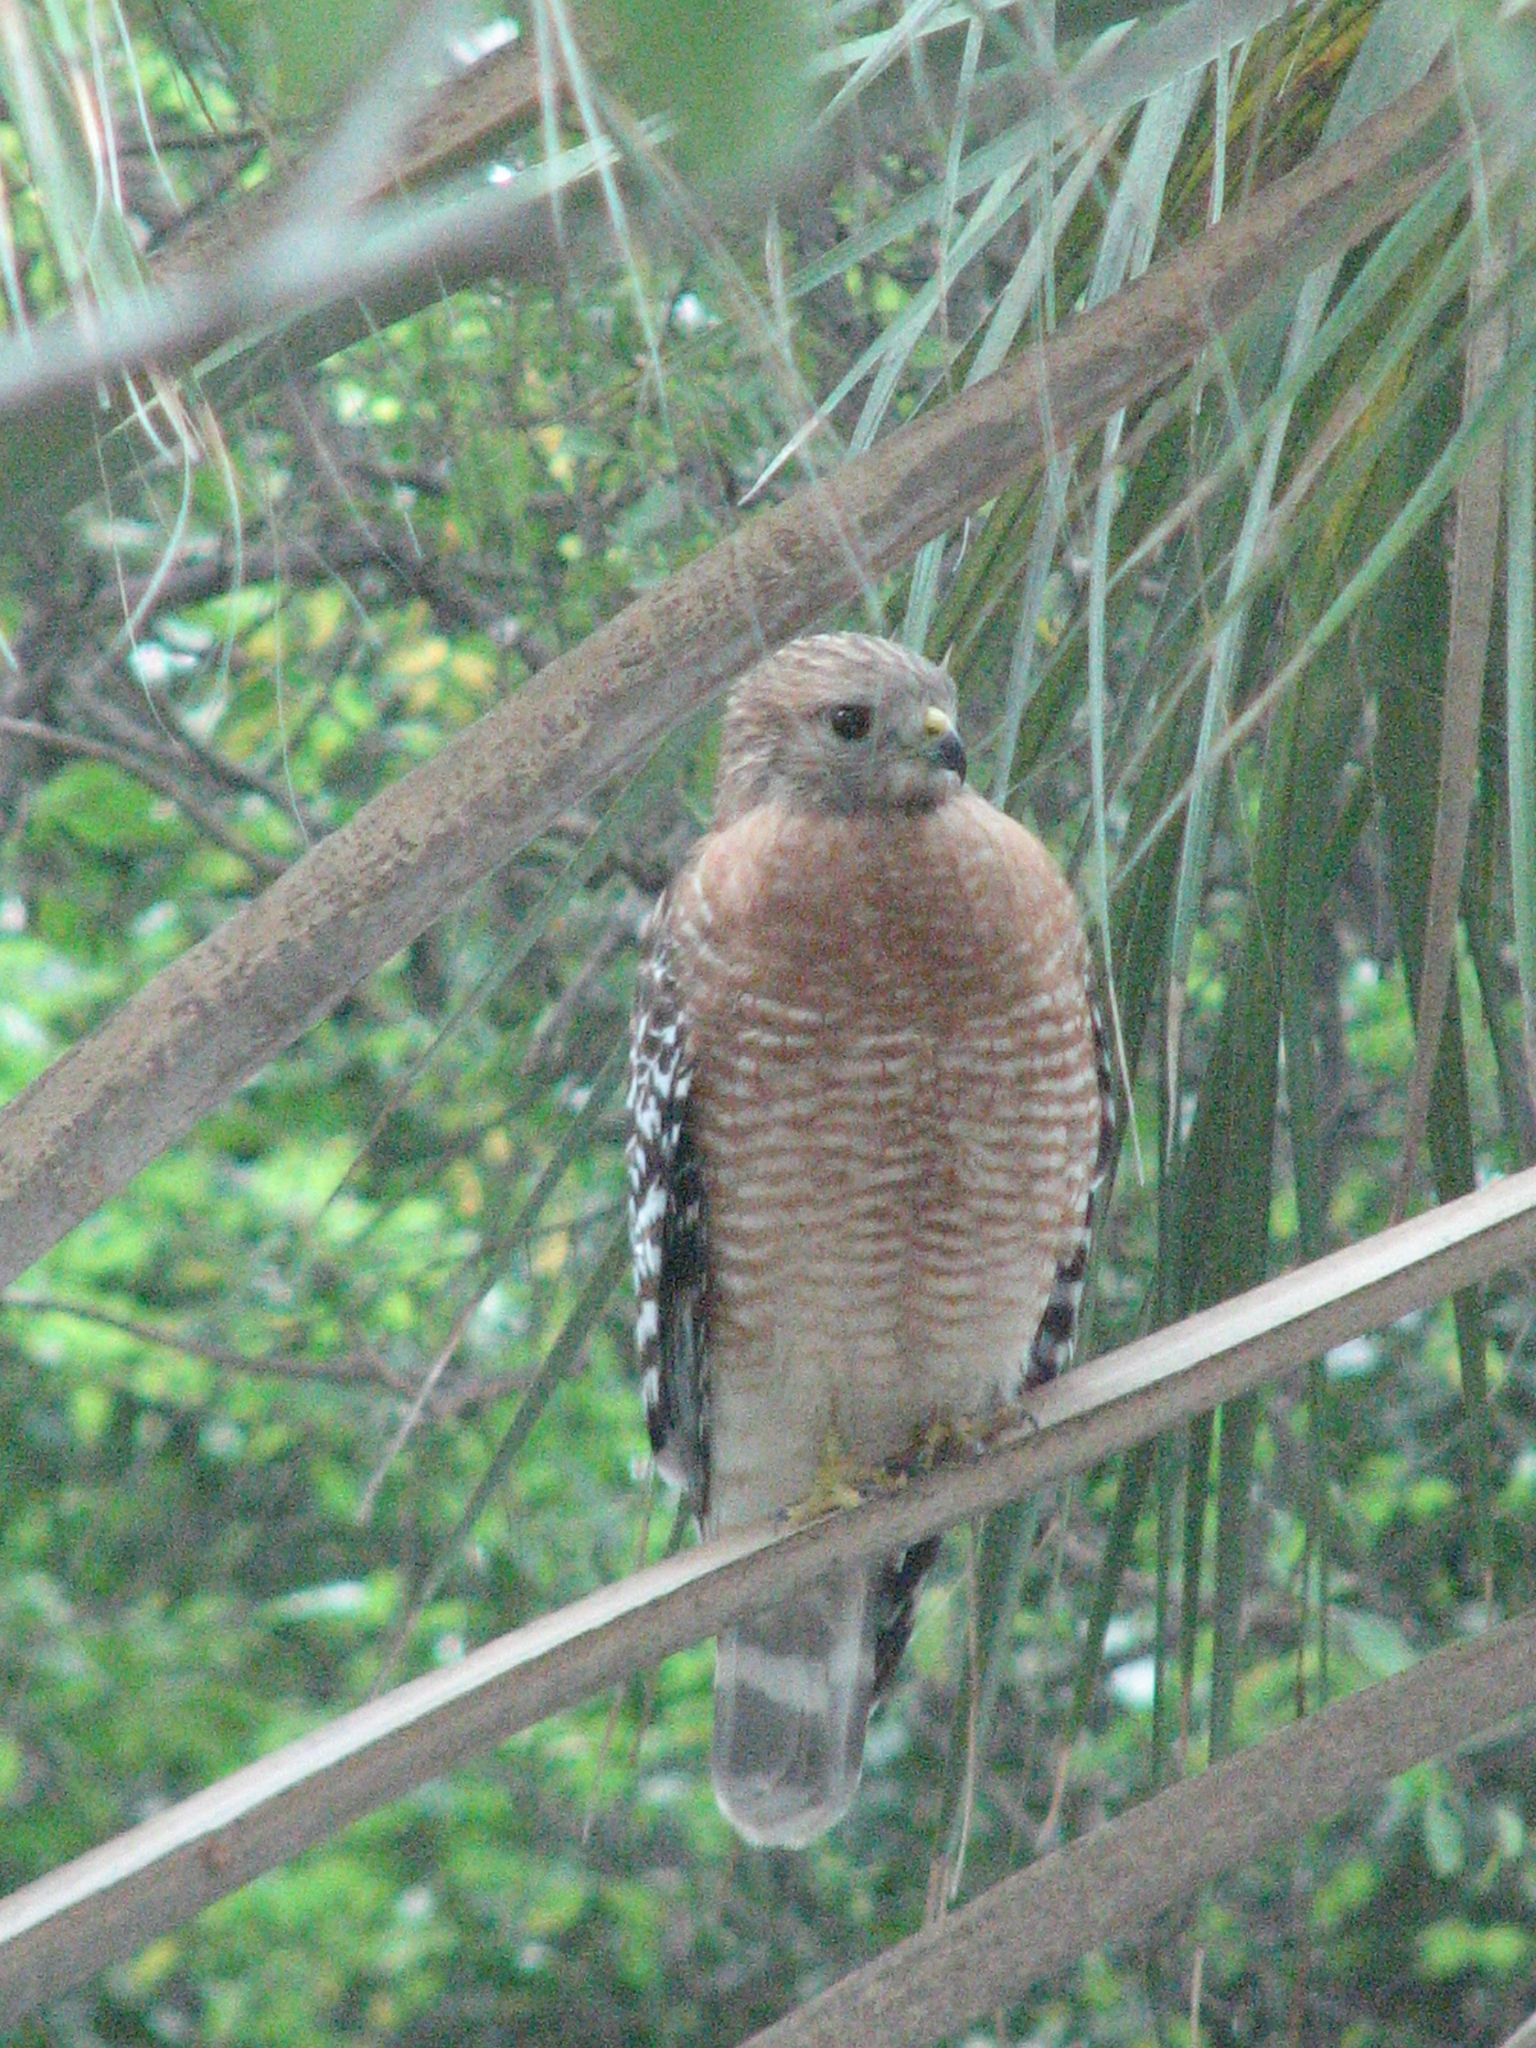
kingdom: Animalia
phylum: Chordata
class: Aves
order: Accipitriformes
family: Accipitridae
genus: Buteo
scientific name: Buteo lineatus
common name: Red-shouldered hawk
